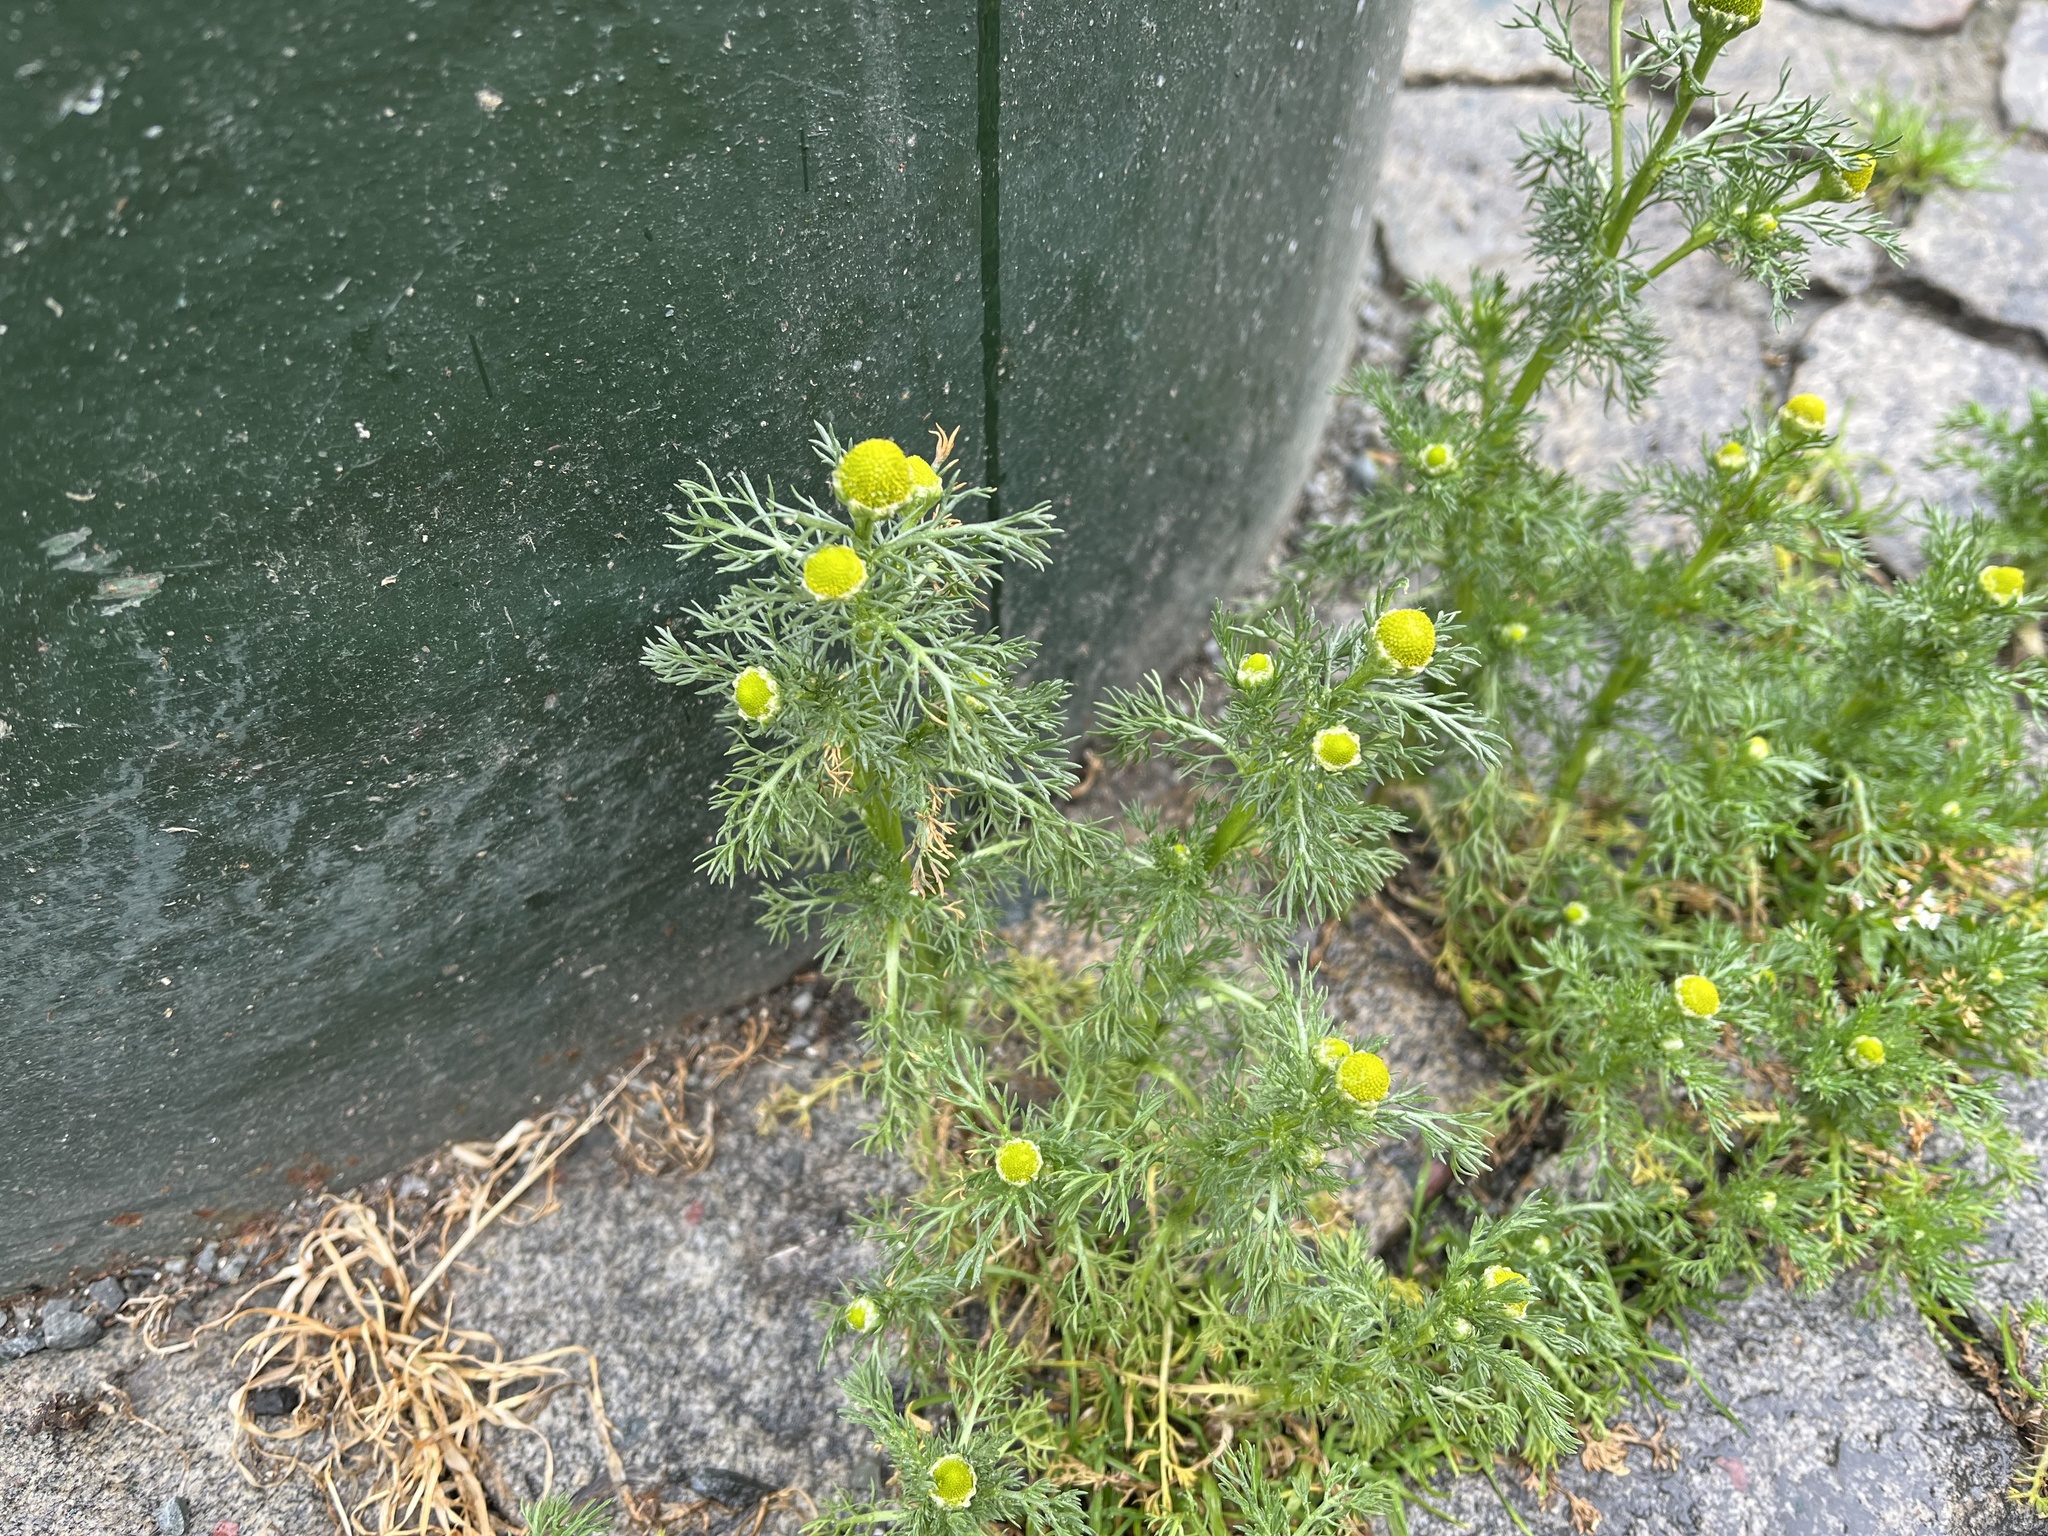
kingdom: Plantae
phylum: Tracheophyta
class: Magnoliopsida
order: Asterales
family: Asteraceae
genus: Matricaria
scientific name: Matricaria discoidea
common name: Disc mayweed
